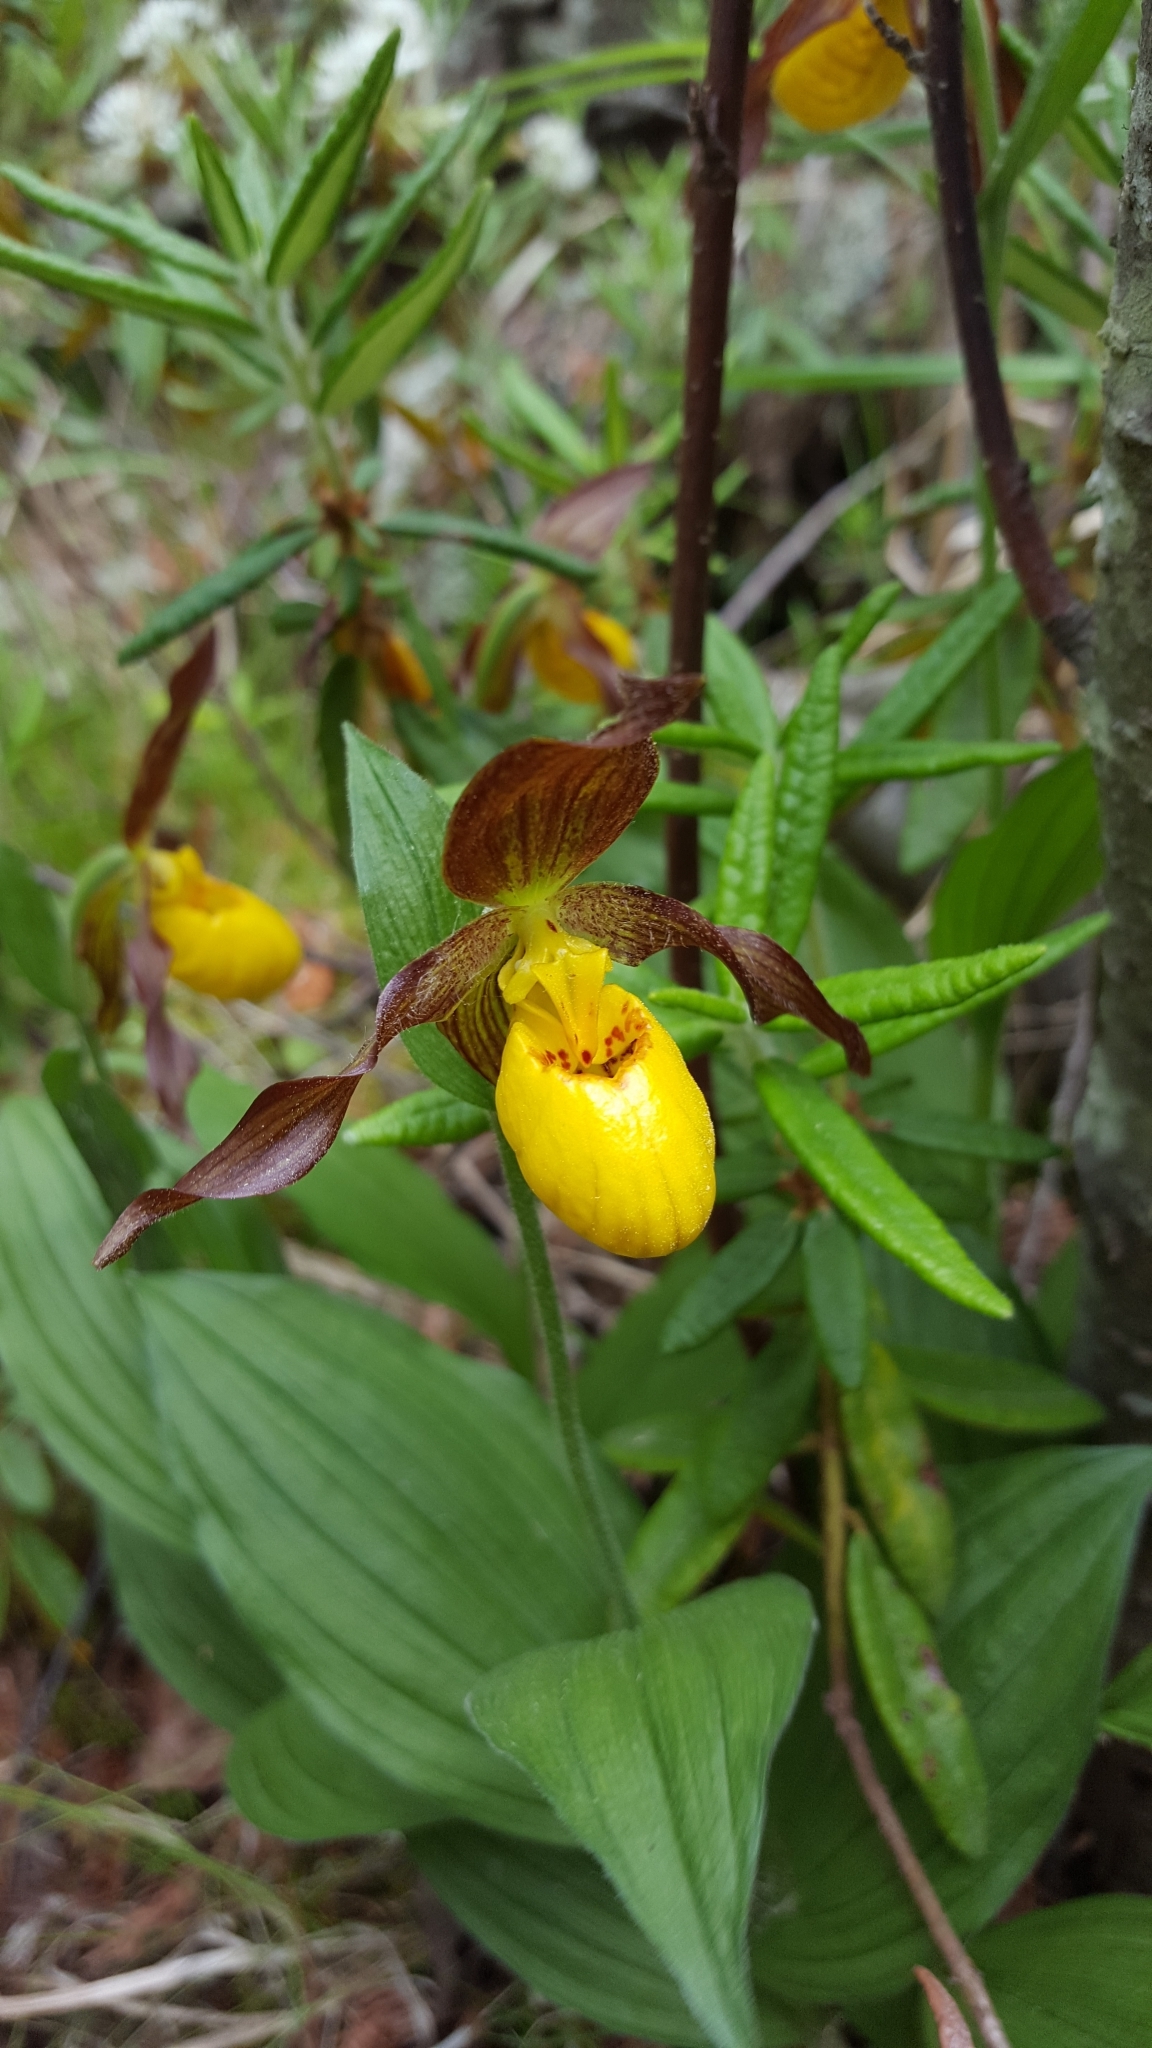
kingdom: Plantae
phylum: Tracheophyta
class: Liliopsida
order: Asparagales
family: Orchidaceae
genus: Cypripedium
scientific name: Cypripedium parviflorum
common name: American yellow lady's-slipper
